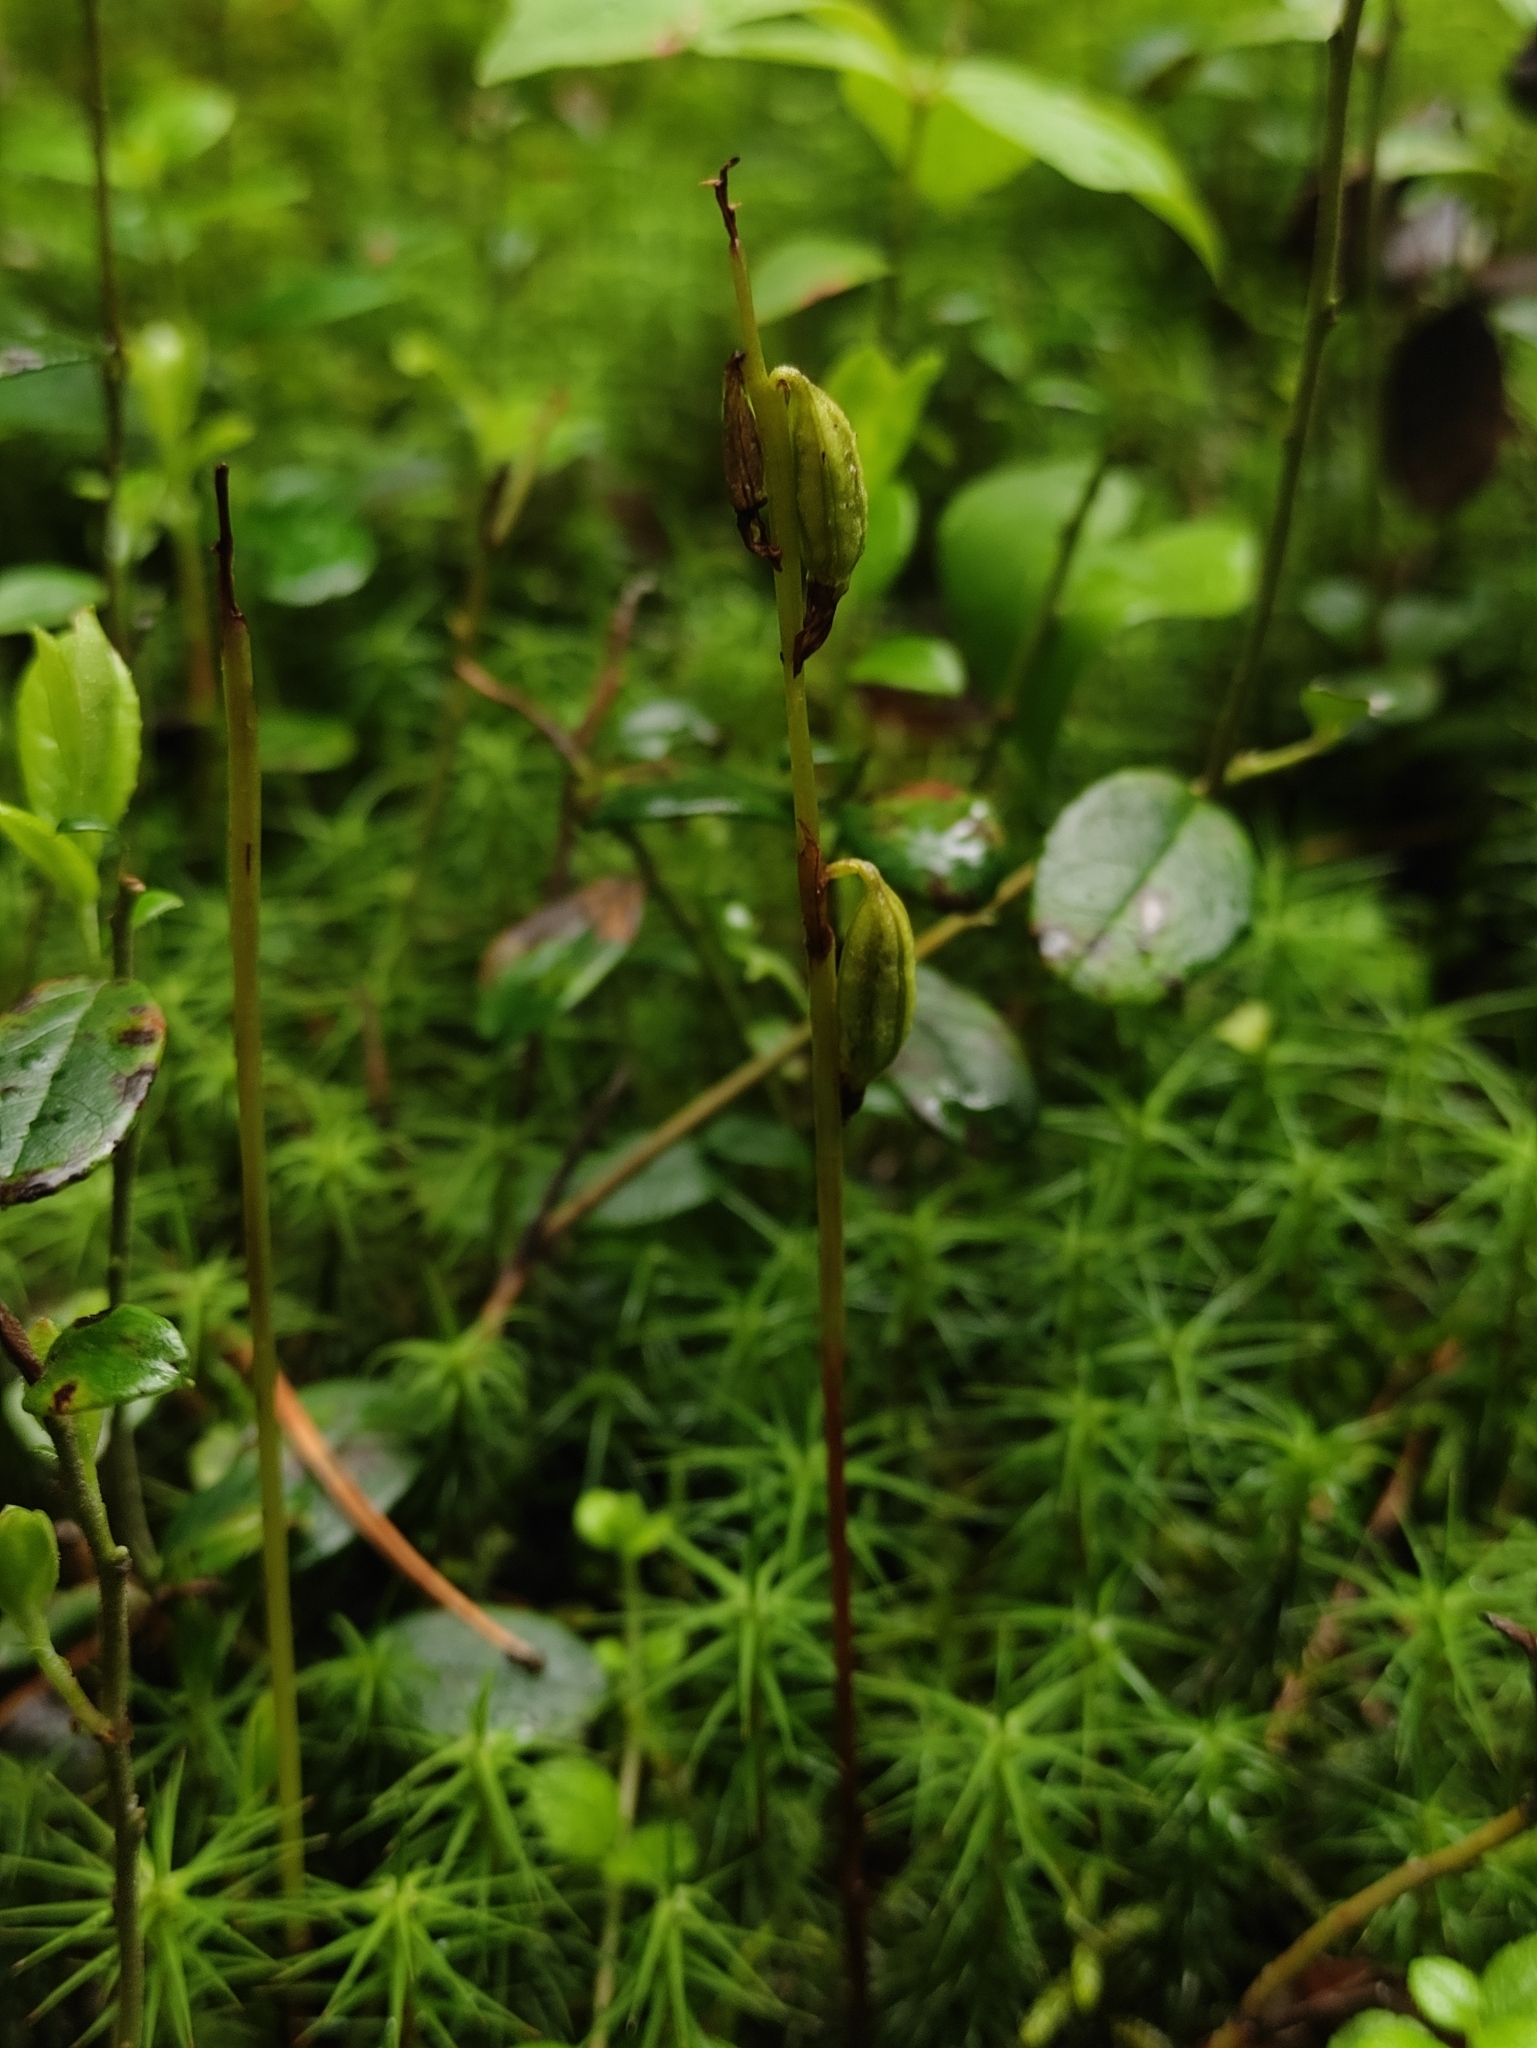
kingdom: Plantae
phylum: Tracheophyta
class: Liliopsida
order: Asparagales
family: Orchidaceae
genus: Corallorhiza
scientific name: Corallorhiza trifida
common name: Yellow coralroot
